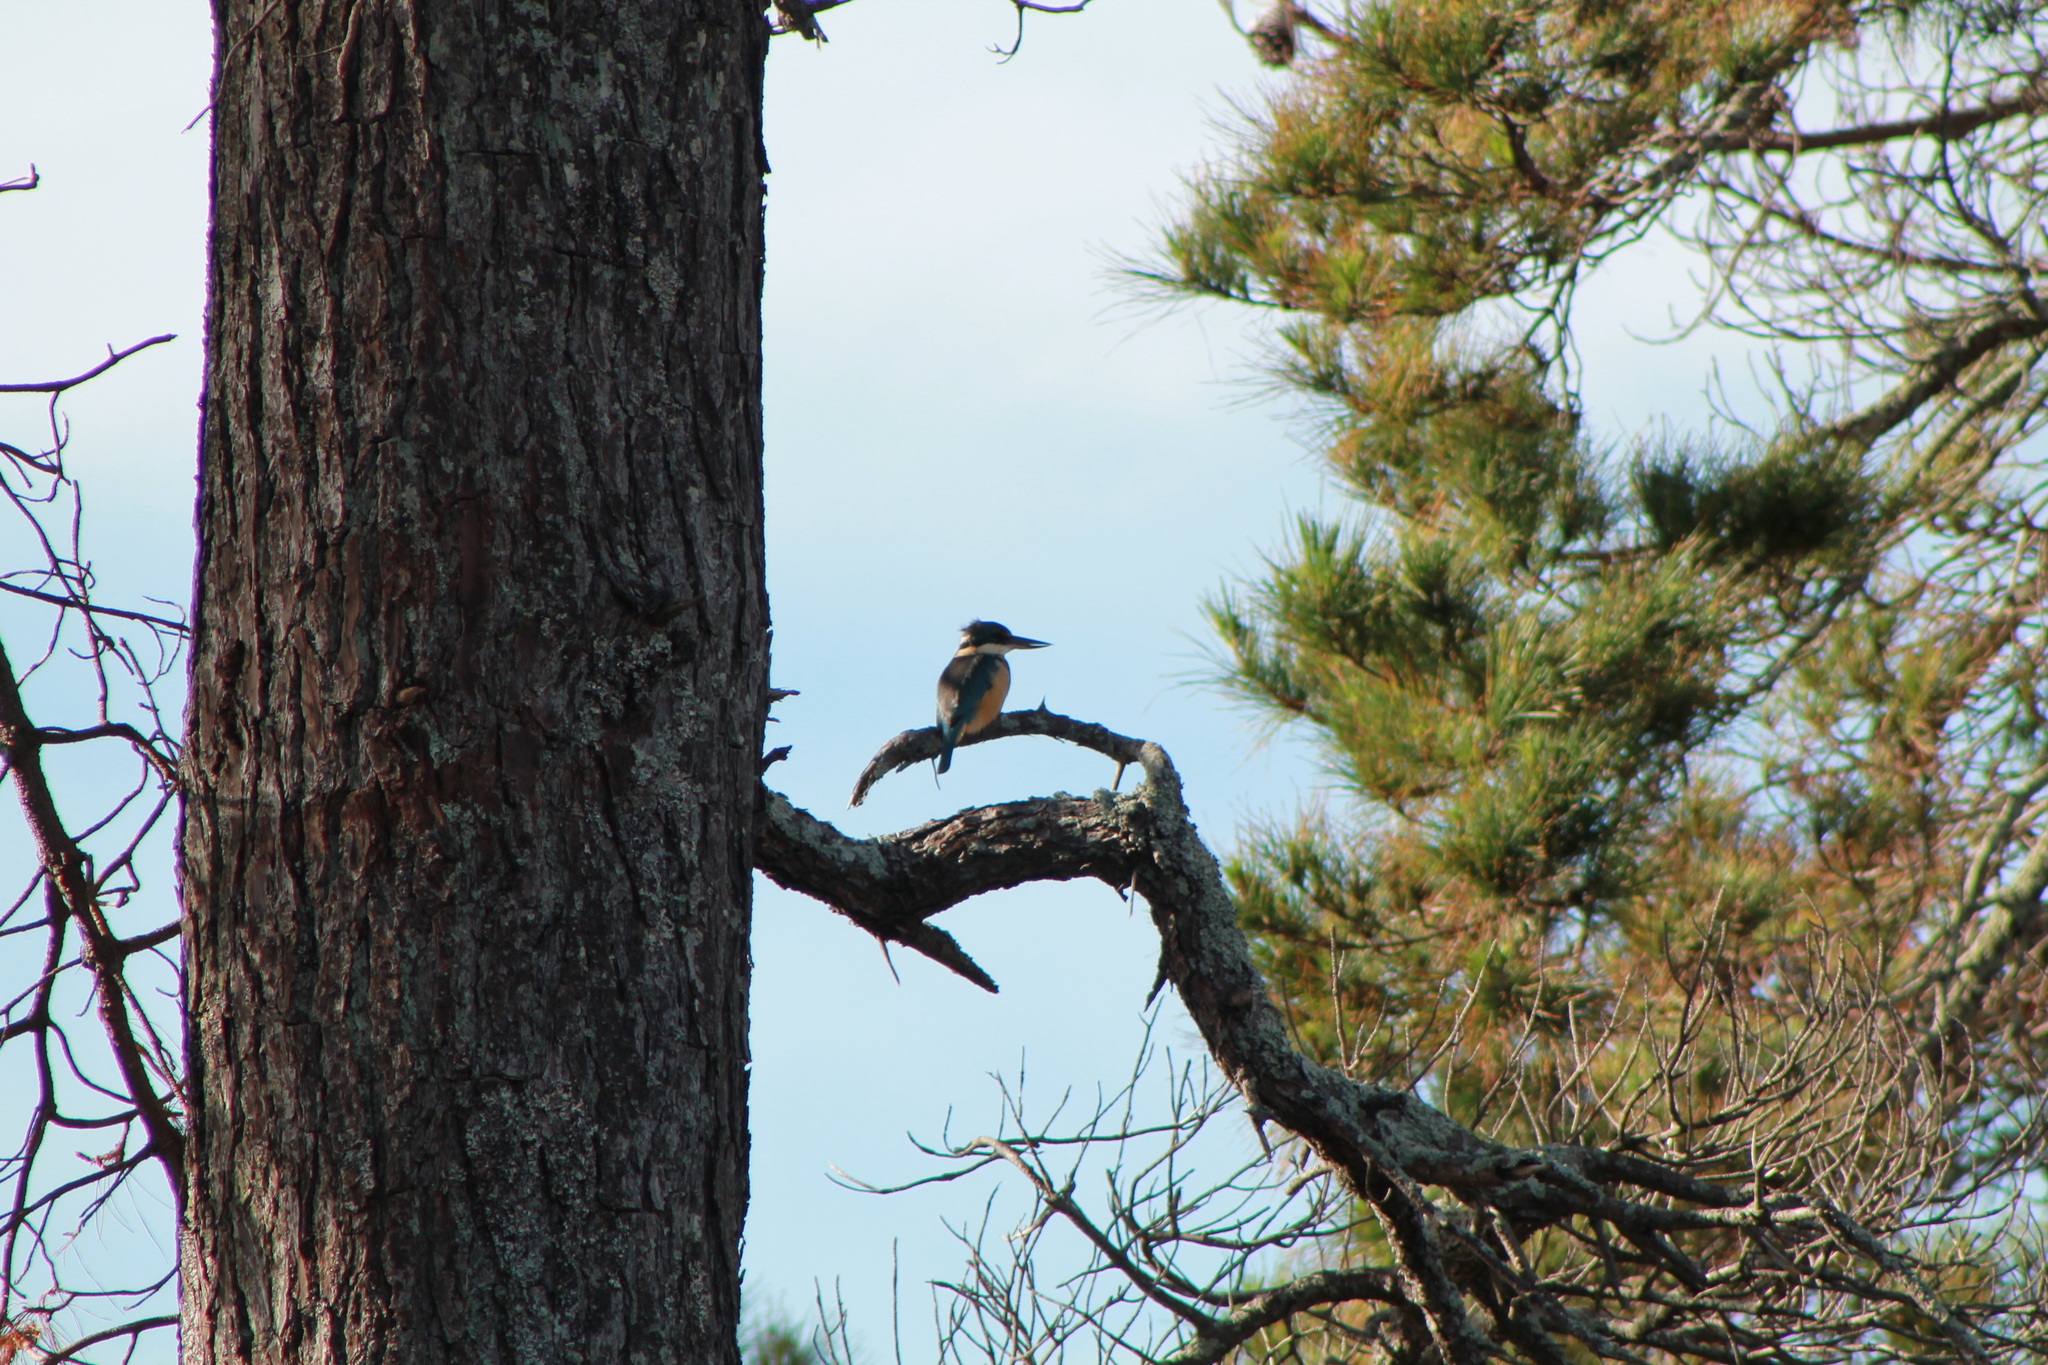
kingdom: Animalia
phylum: Chordata
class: Aves
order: Coraciiformes
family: Alcedinidae
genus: Todiramphus
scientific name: Todiramphus sanctus
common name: Sacred kingfisher
